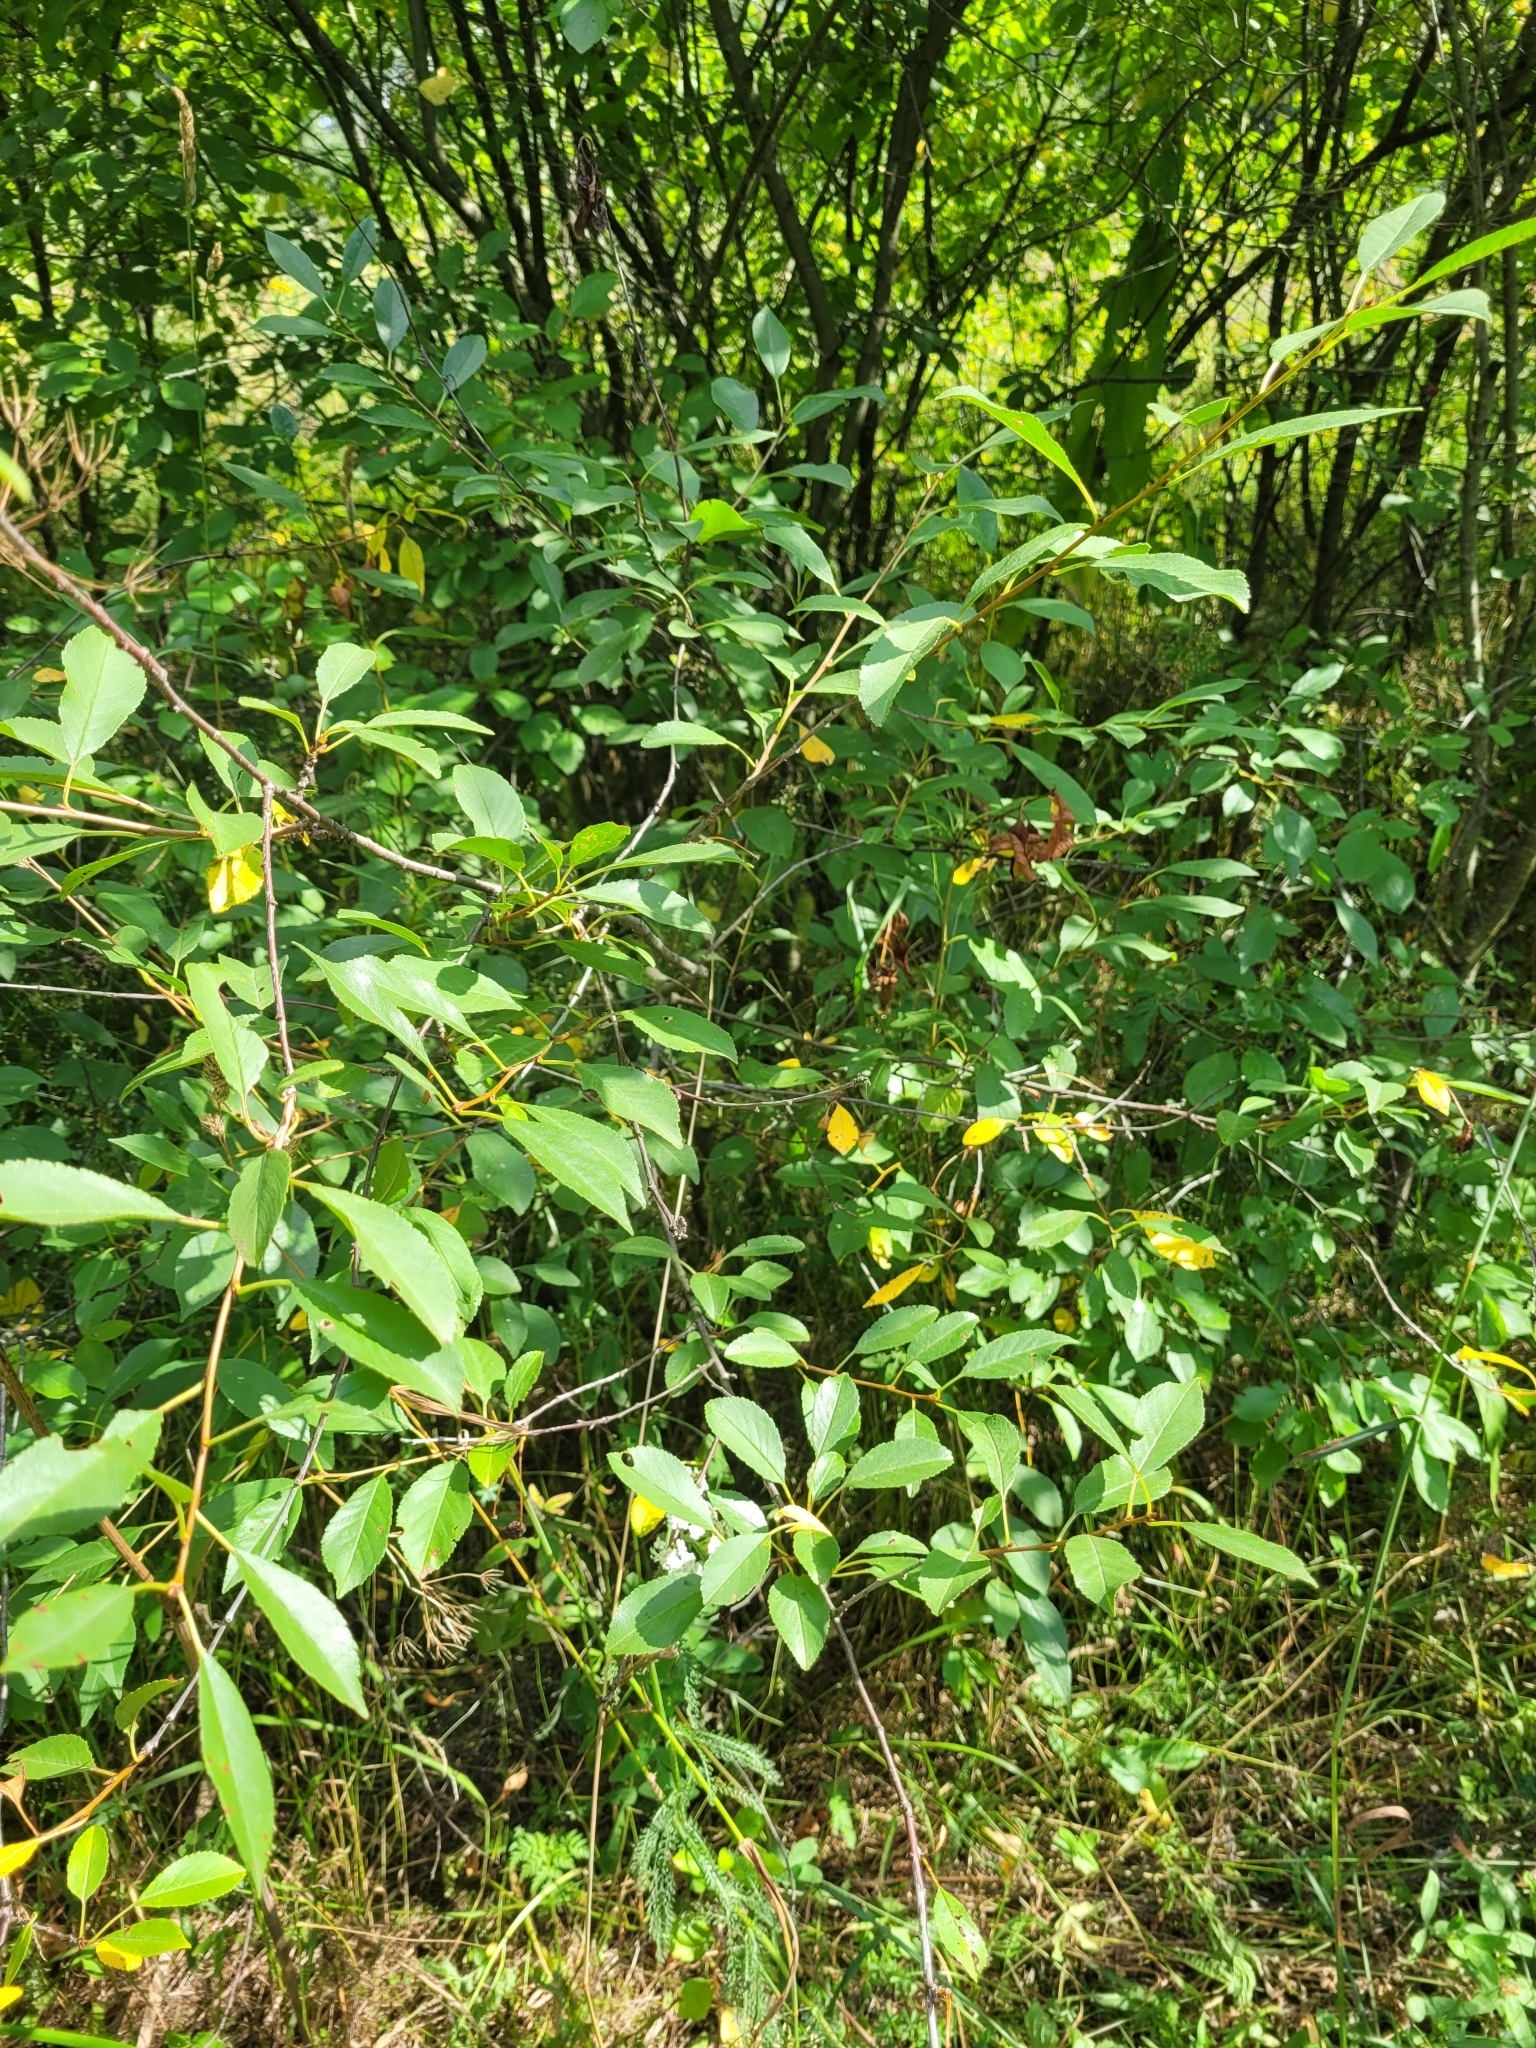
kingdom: Plantae
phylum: Tracheophyta
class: Magnoliopsida
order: Rosales
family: Rosaceae
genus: Prunus
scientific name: Prunus cerasus
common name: Morello cherry
